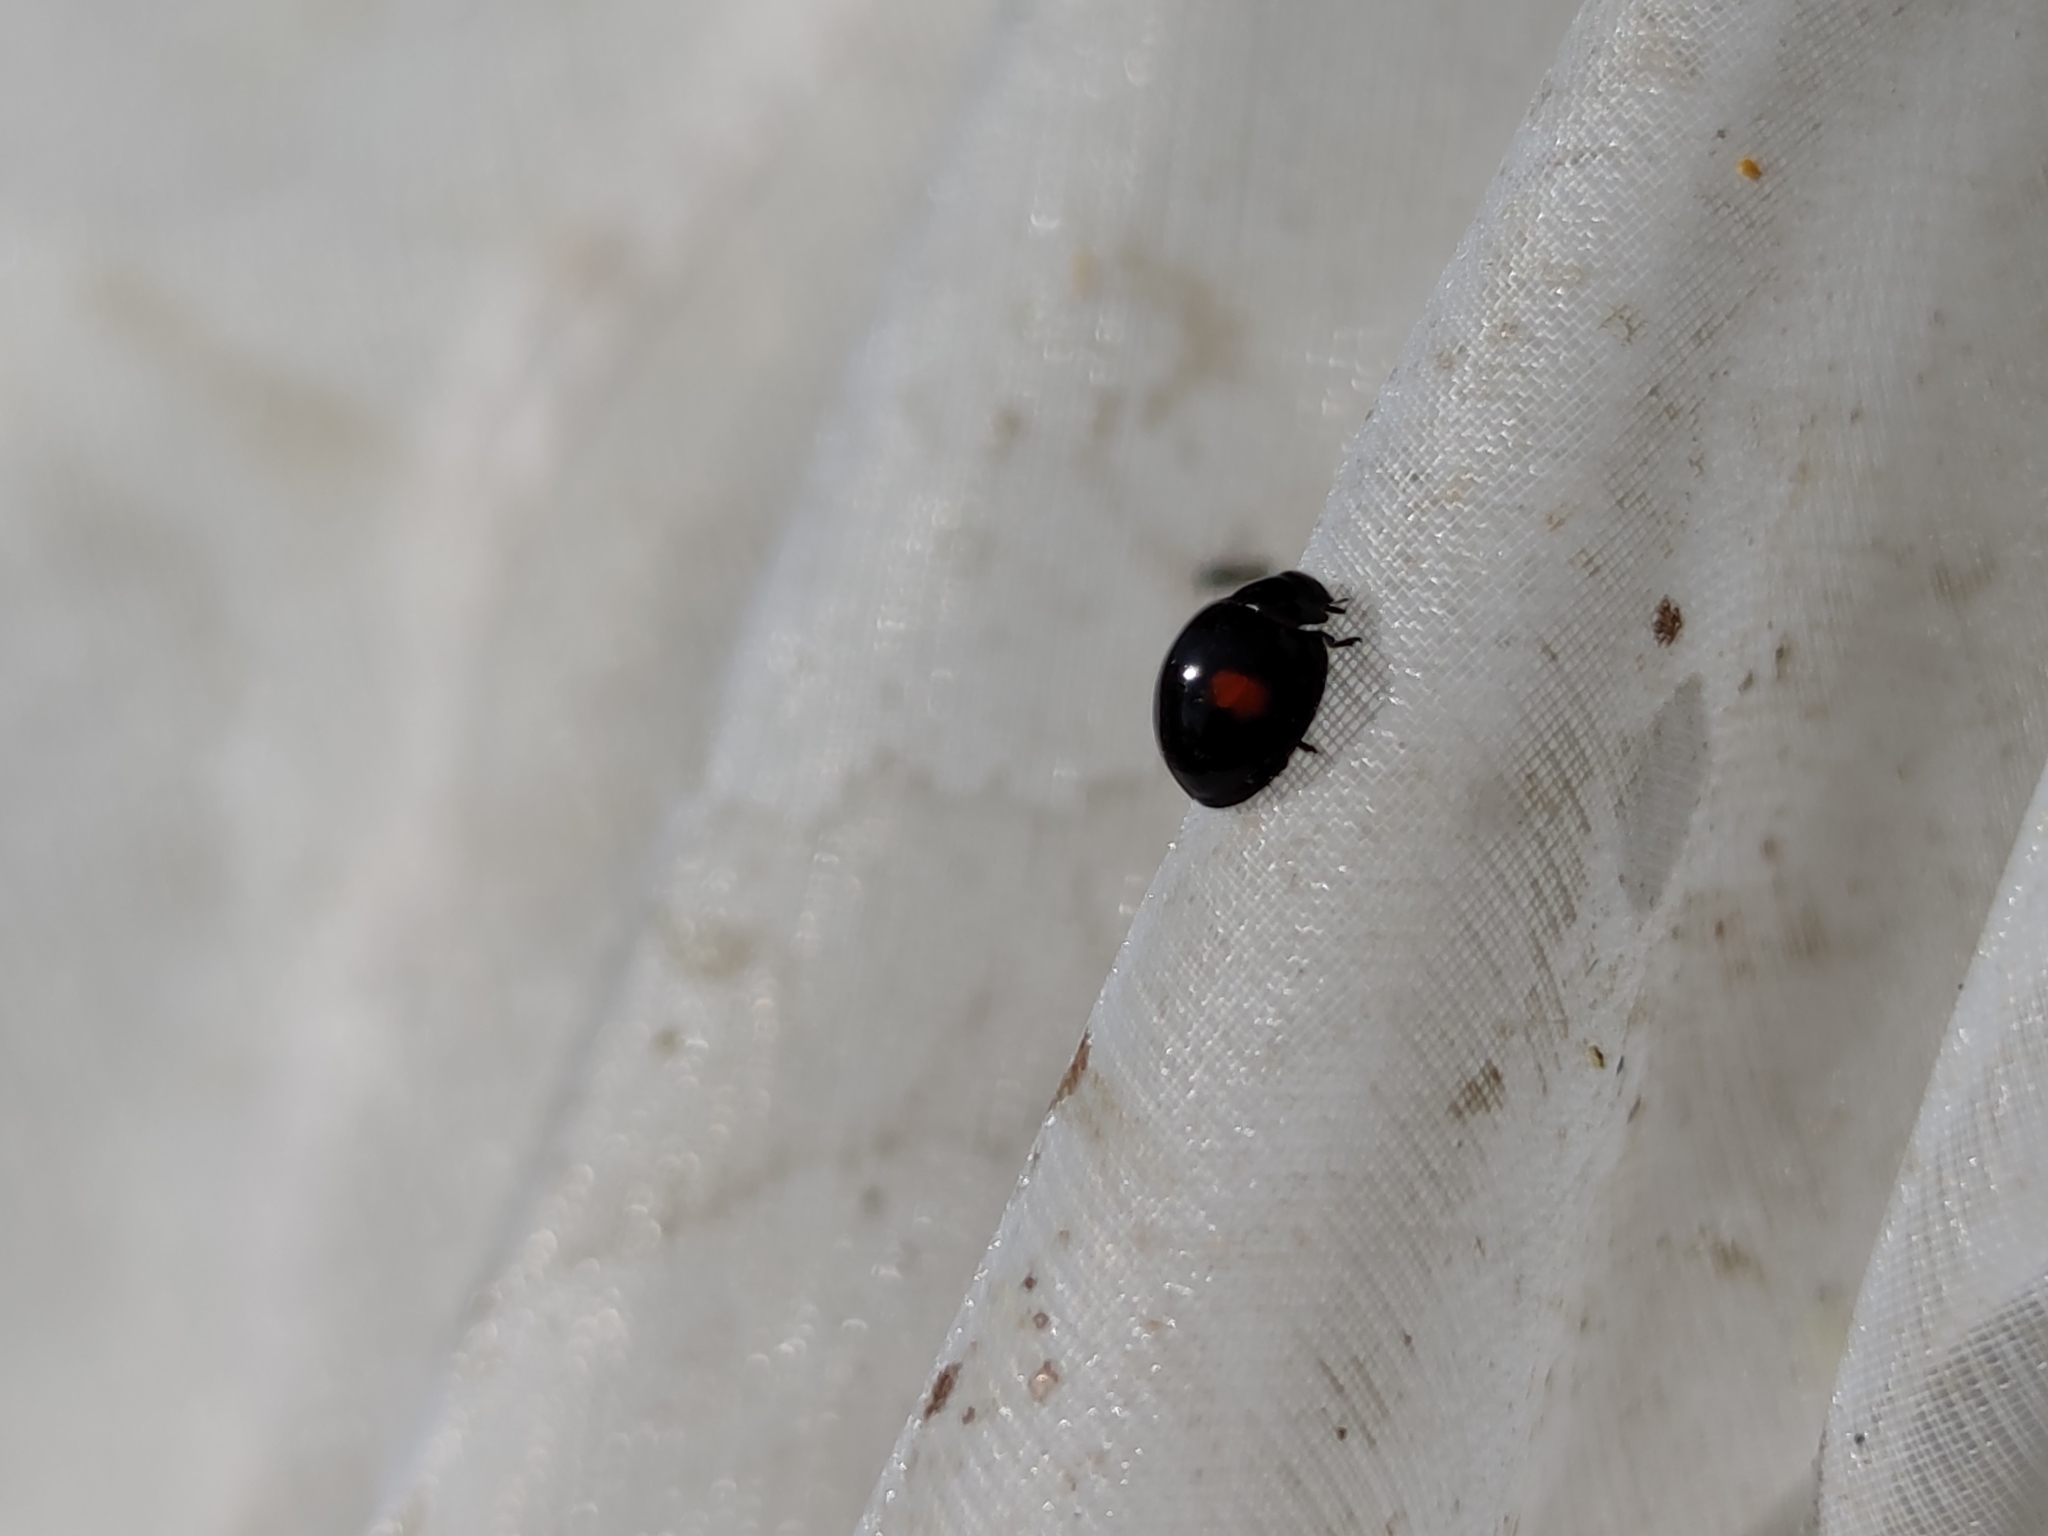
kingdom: Animalia
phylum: Arthropoda
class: Insecta
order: Coleoptera
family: Coccinellidae
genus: Chilocorus
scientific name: Chilocorus renipustulatus
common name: Kidney-spot ladybird
